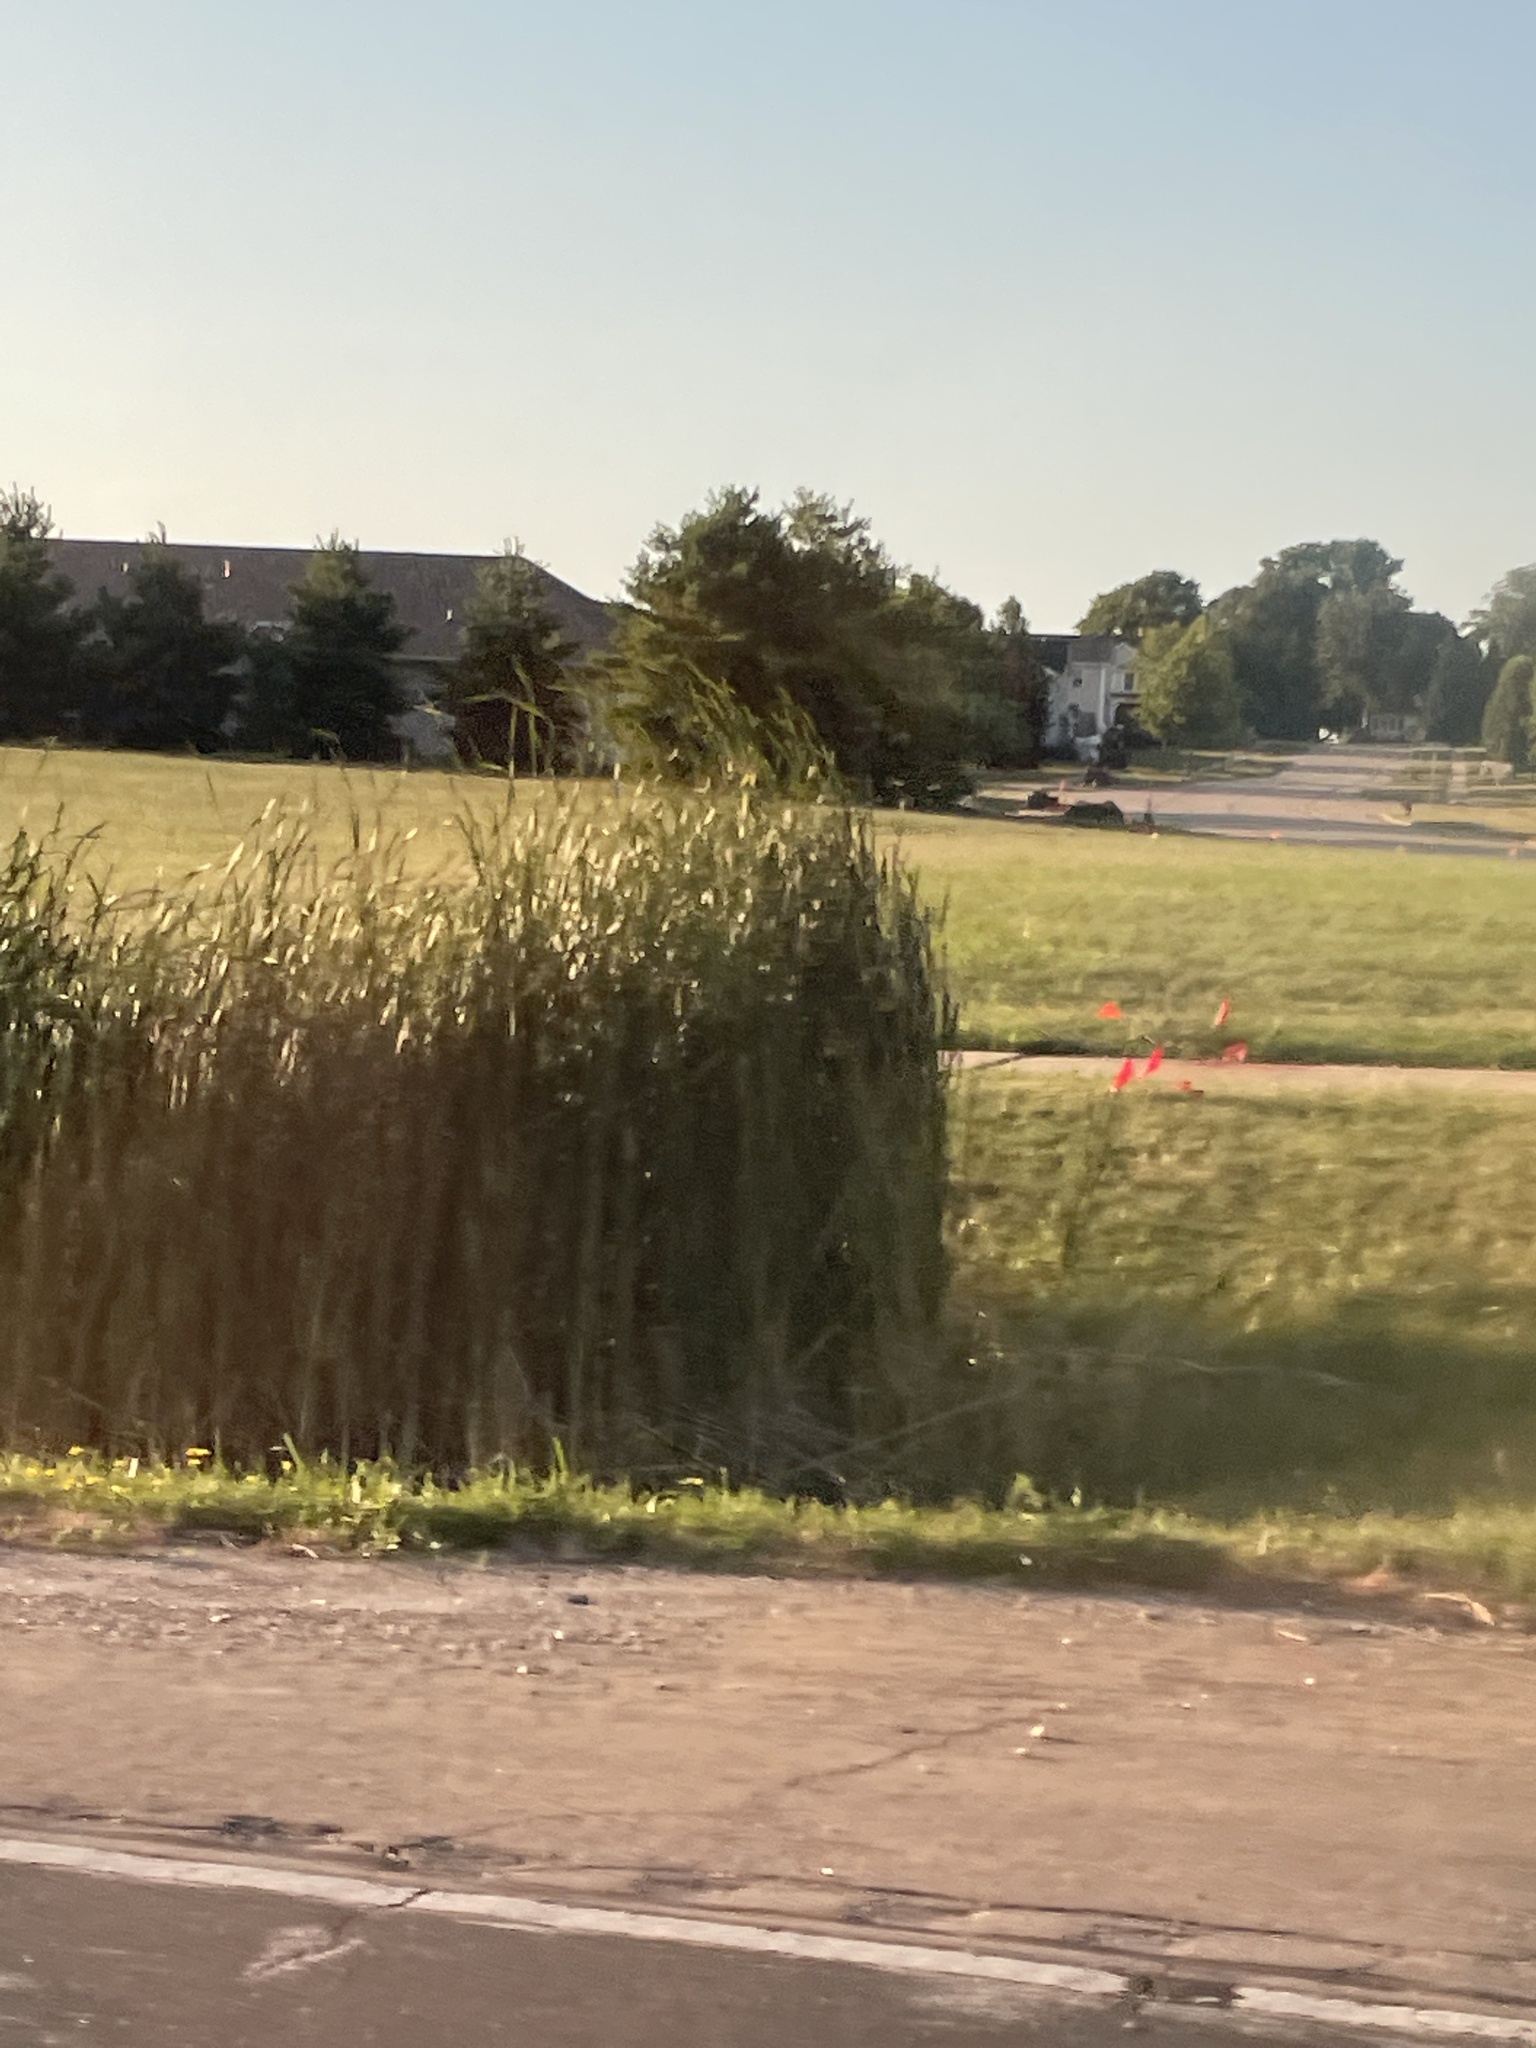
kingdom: Plantae
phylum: Tracheophyta
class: Liliopsida
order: Poales
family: Poaceae
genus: Phragmites
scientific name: Phragmites australis
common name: Common reed
